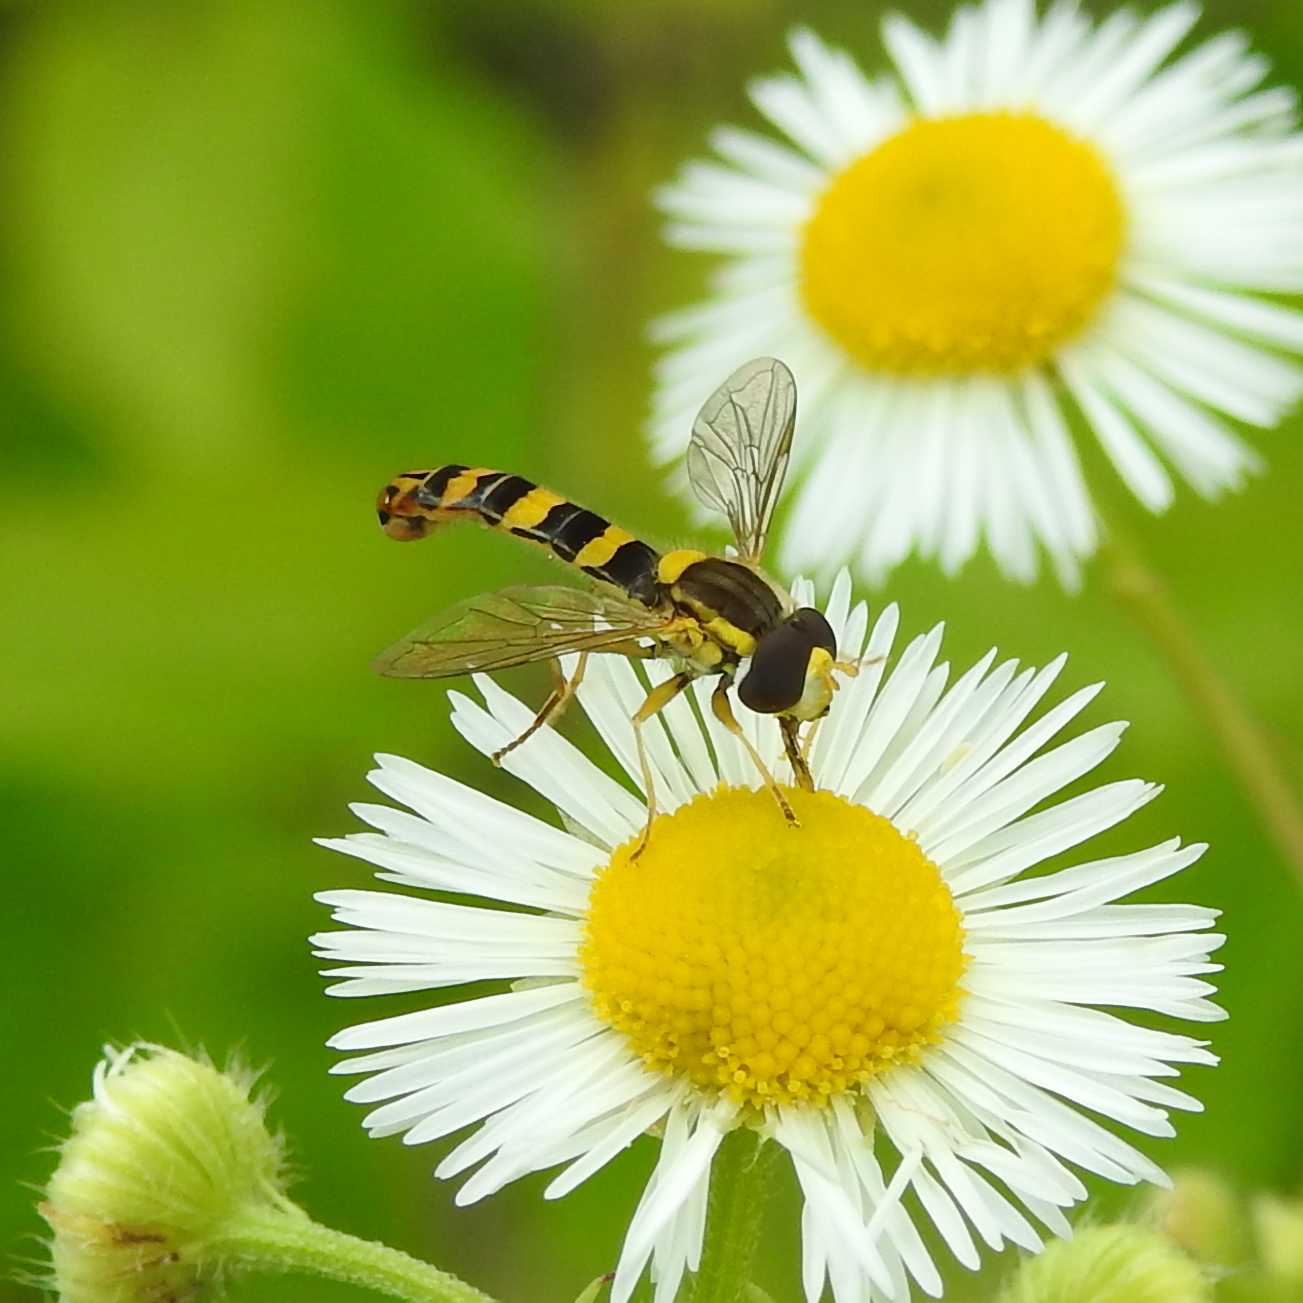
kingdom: Animalia
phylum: Arthropoda
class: Insecta
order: Diptera
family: Syrphidae
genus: Sphaerophoria
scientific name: Sphaerophoria scripta
